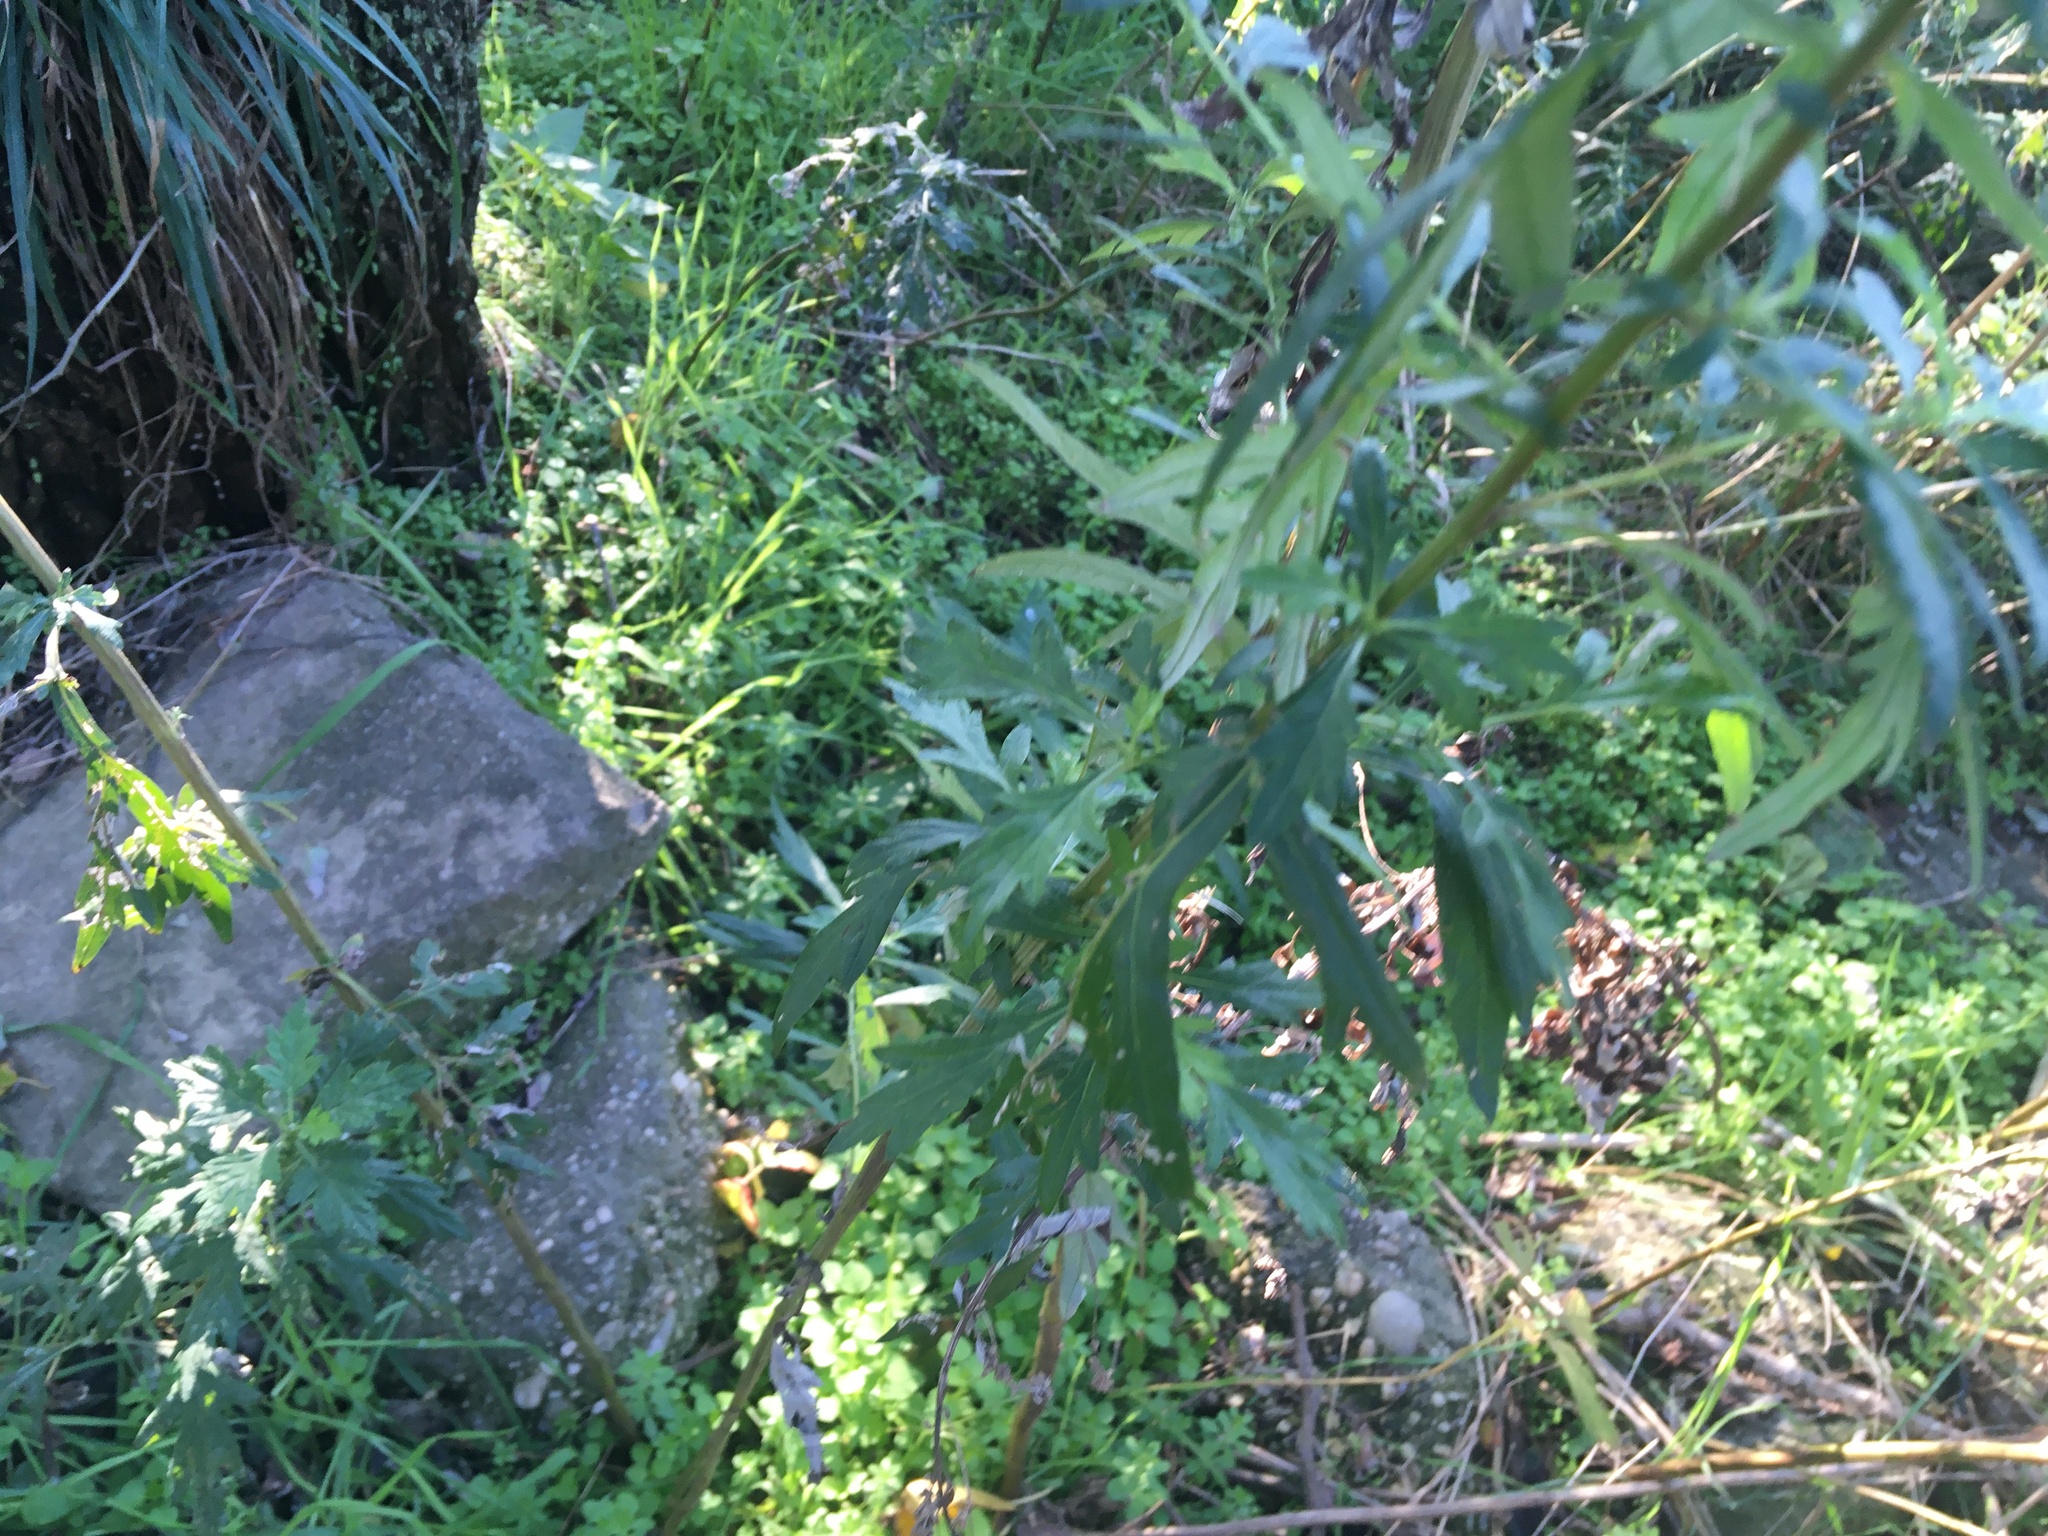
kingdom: Plantae
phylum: Tracheophyta
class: Magnoliopsida
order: Asterales
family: Asteraceae
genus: Artemisia
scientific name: Artemisia vulgaris
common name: Mugwort
